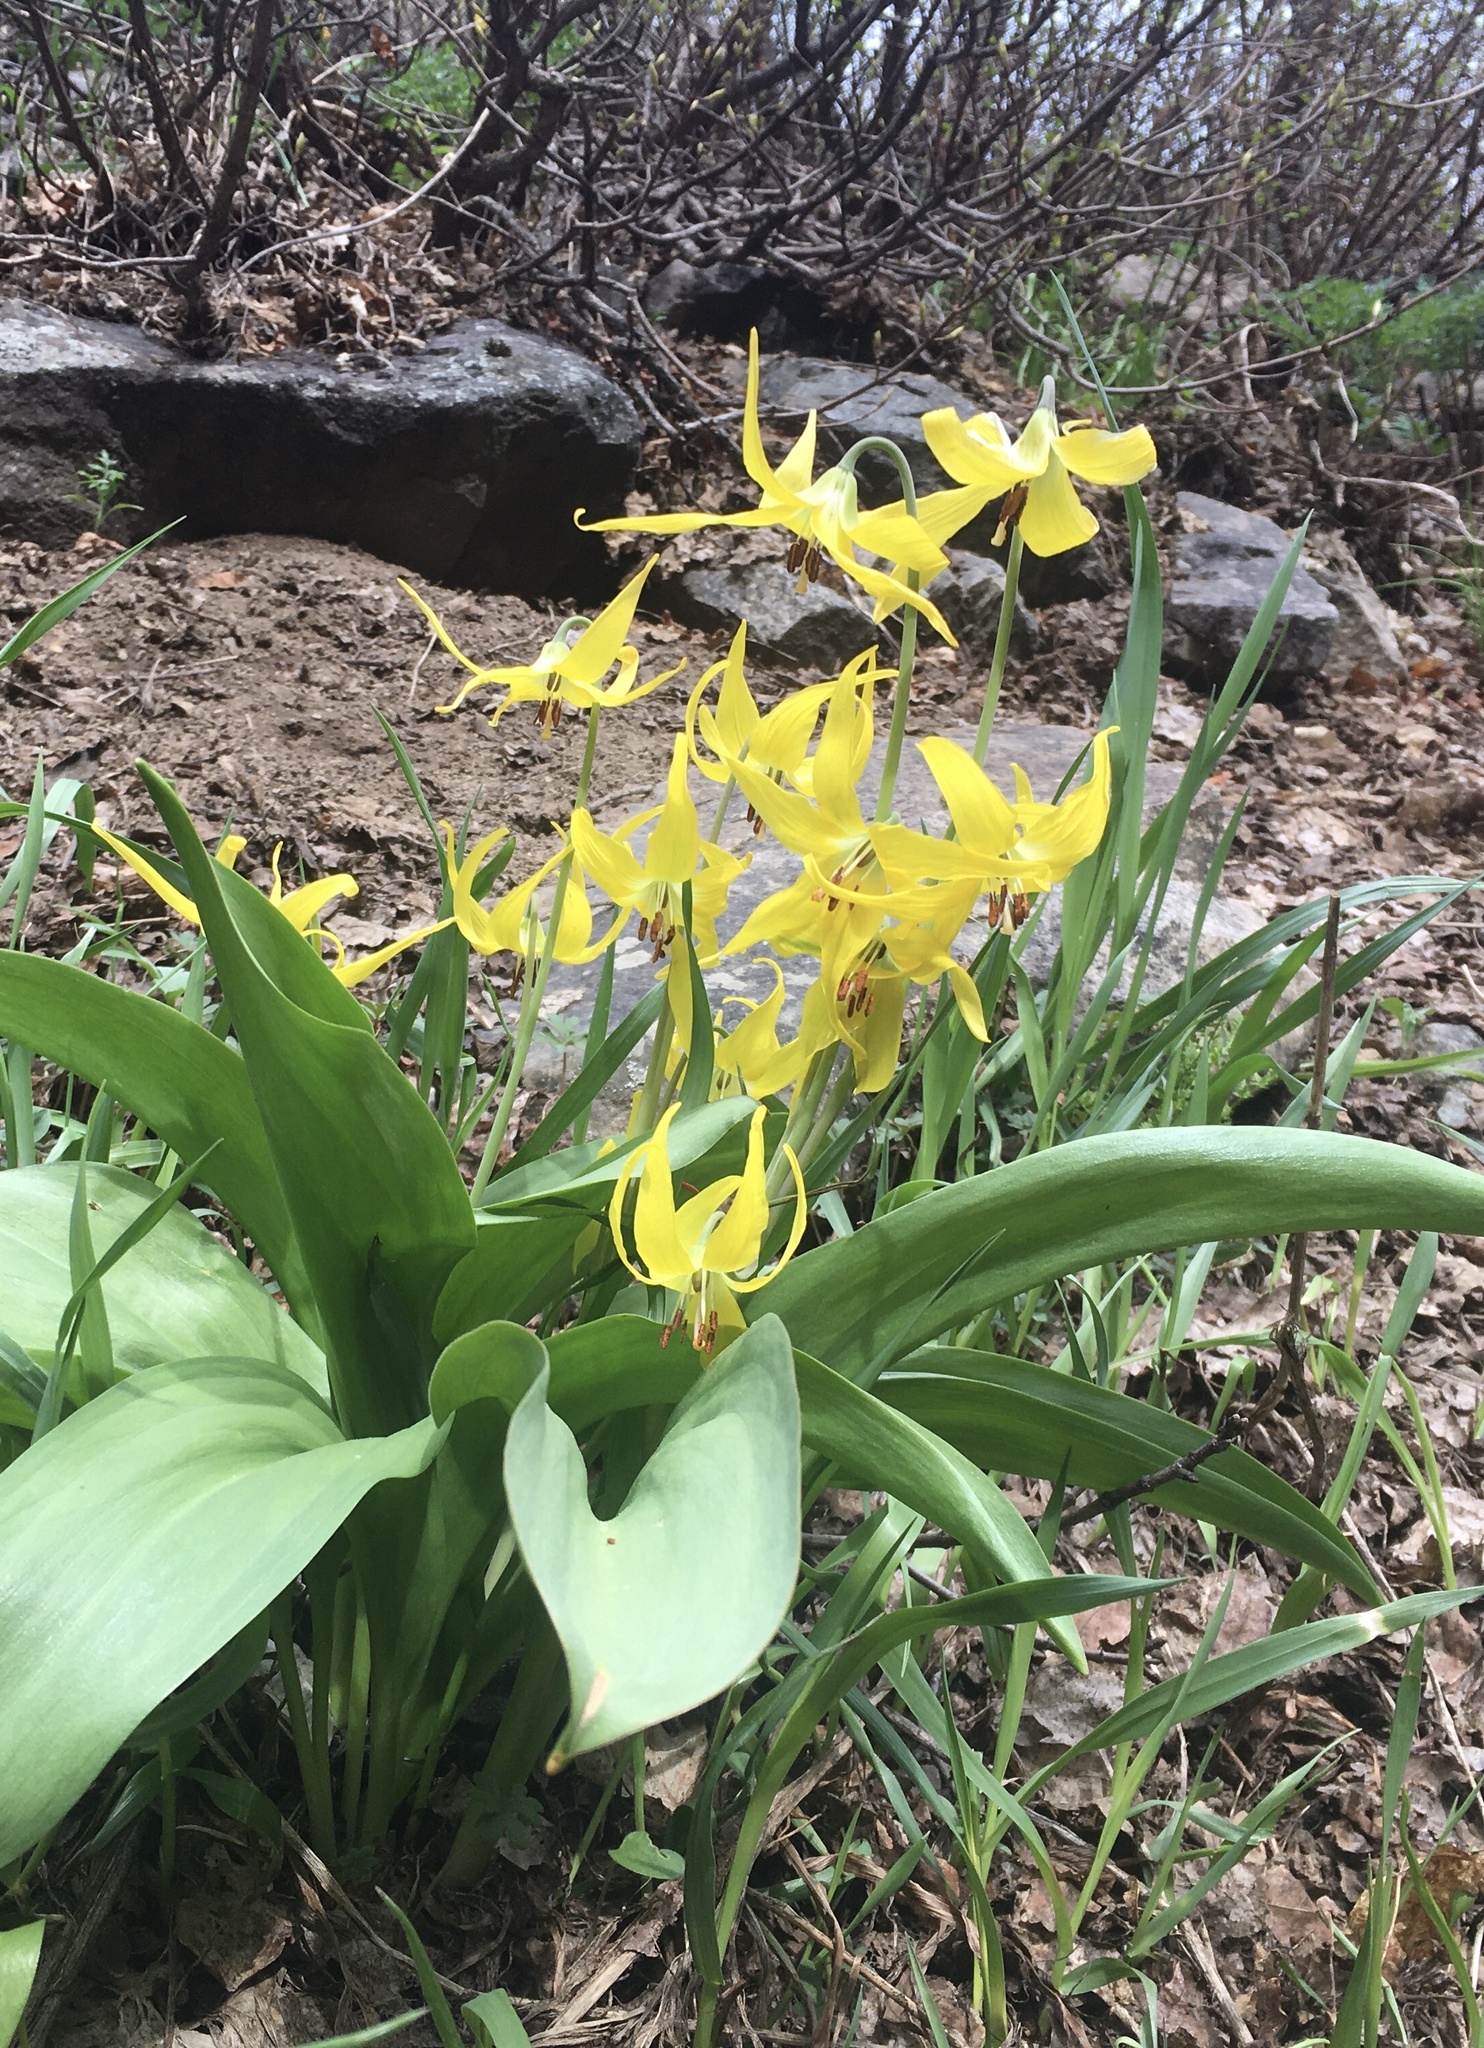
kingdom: Plantae
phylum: Tracheophyta
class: Liliopsida
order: Liliales
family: Liliaceae
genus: Erythronium
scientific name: Erythronium grandiflorum
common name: Avalanche-lily
